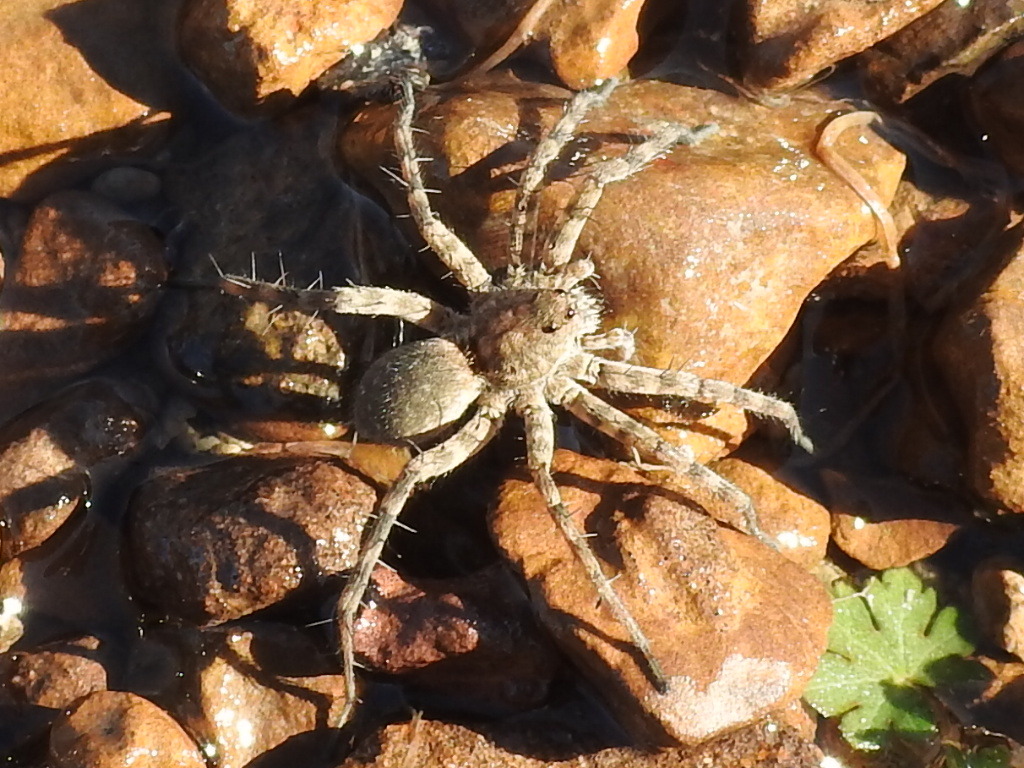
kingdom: Animalia
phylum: Arthropoda
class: Arachnida
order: Araneae
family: Lycosidae
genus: Pardosa
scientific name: Pardosa mercurialis
